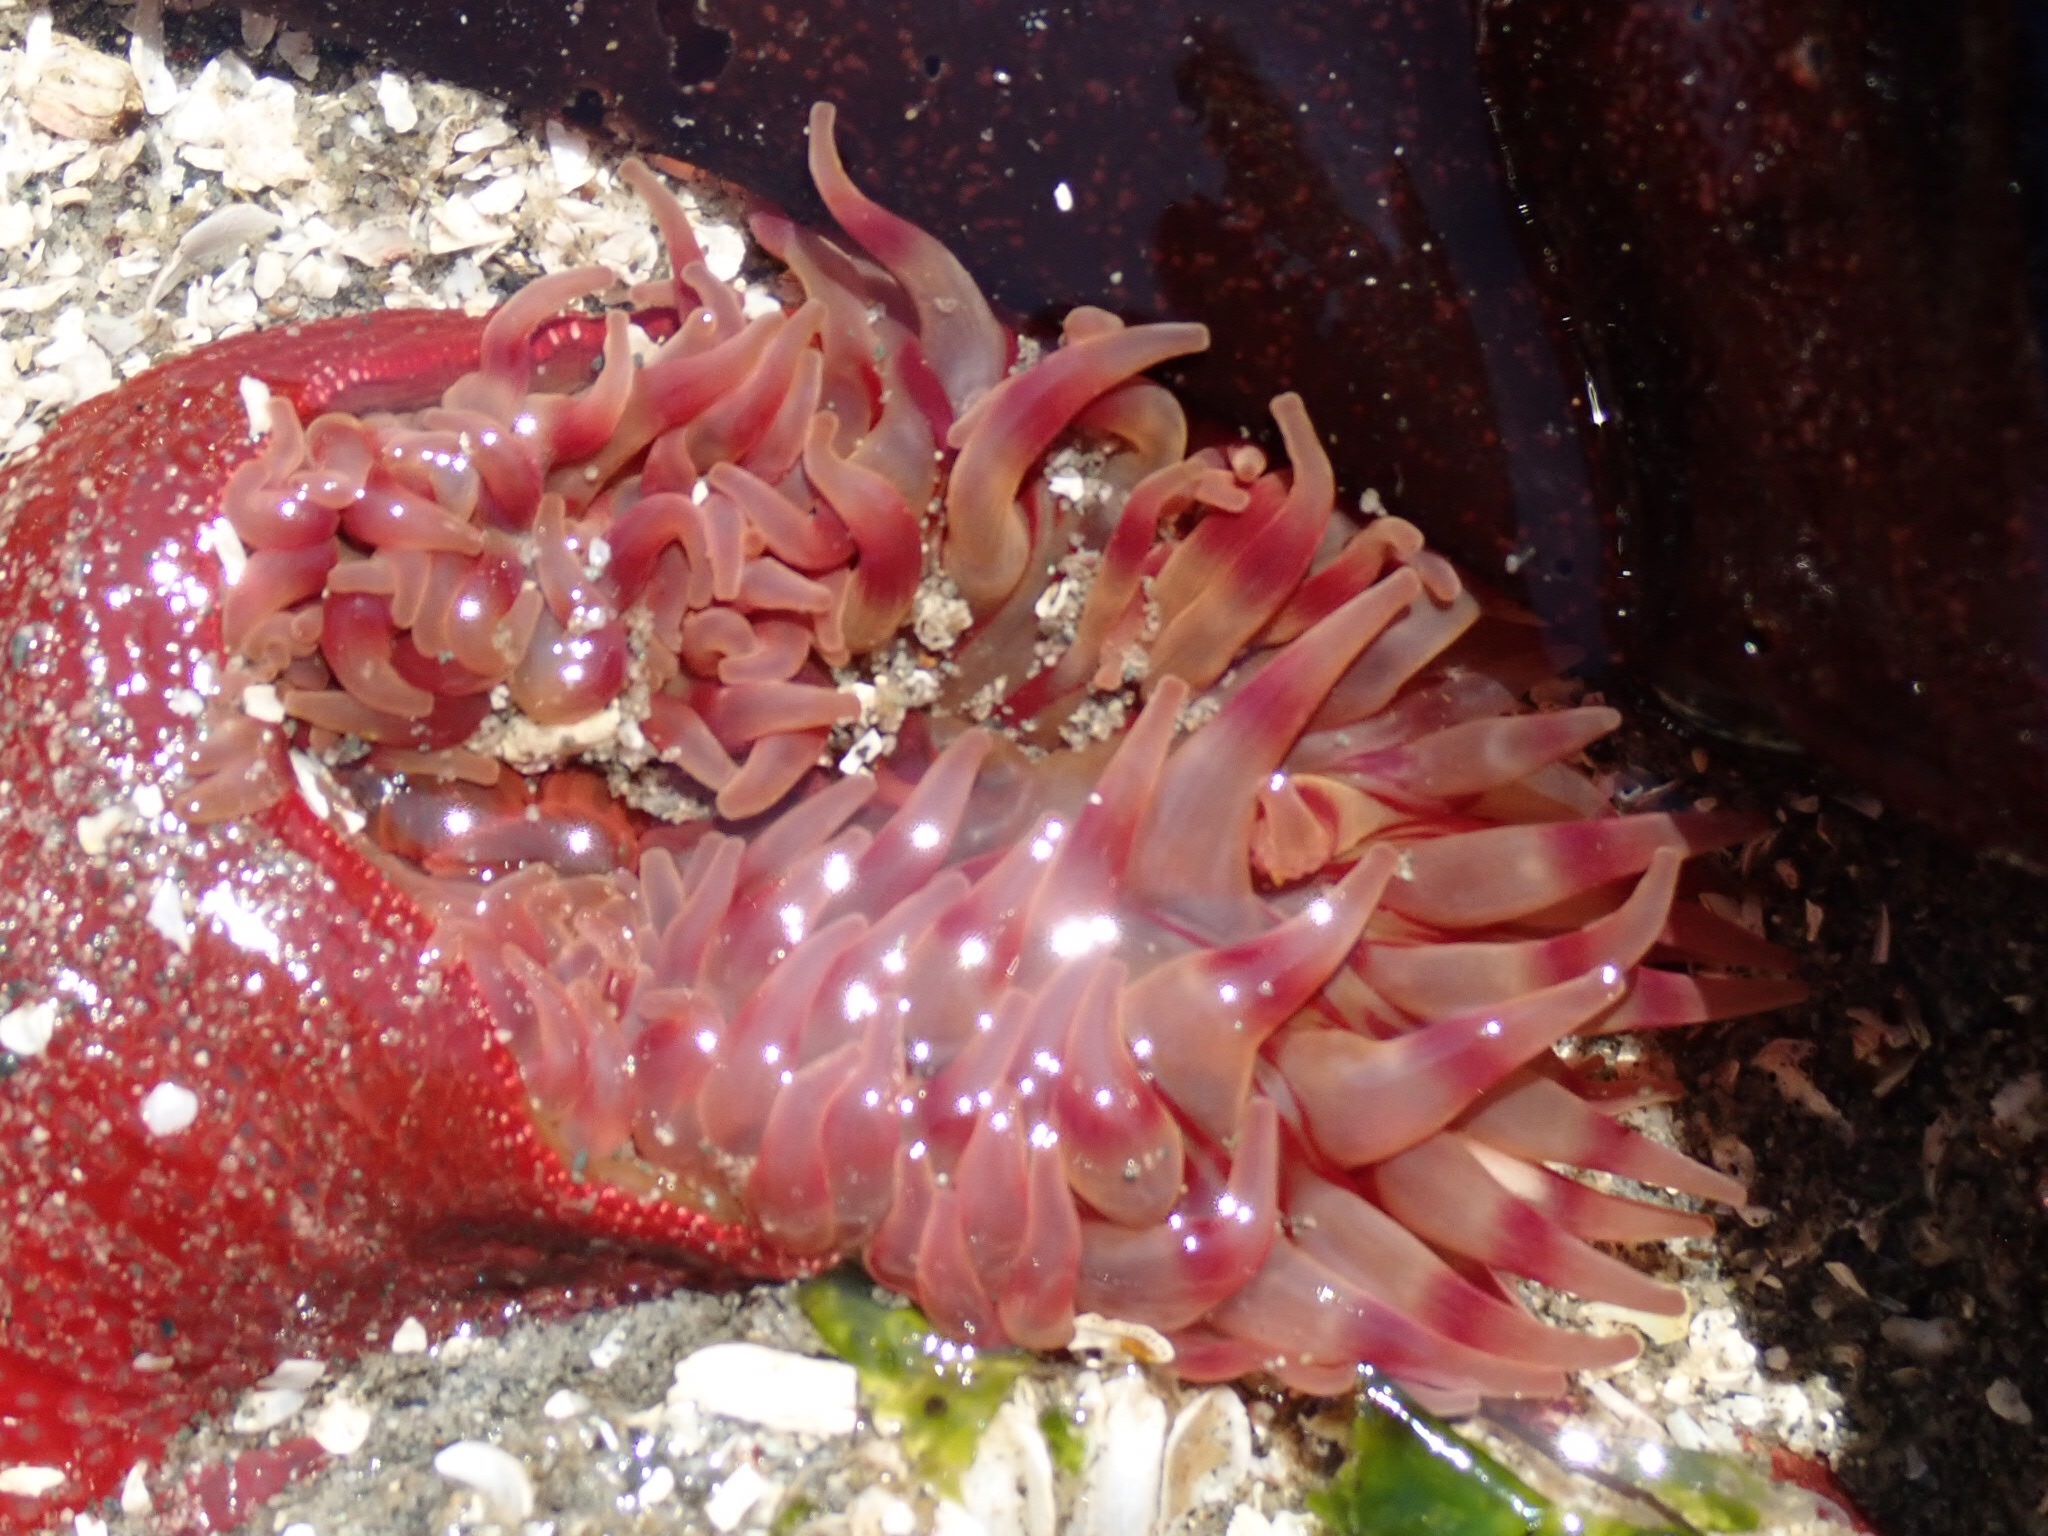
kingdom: Animalia
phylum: Cnidaria
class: Anthozoa
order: Actiniaria
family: Actiniidae
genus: Urticina
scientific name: Urticina grebelnyi
